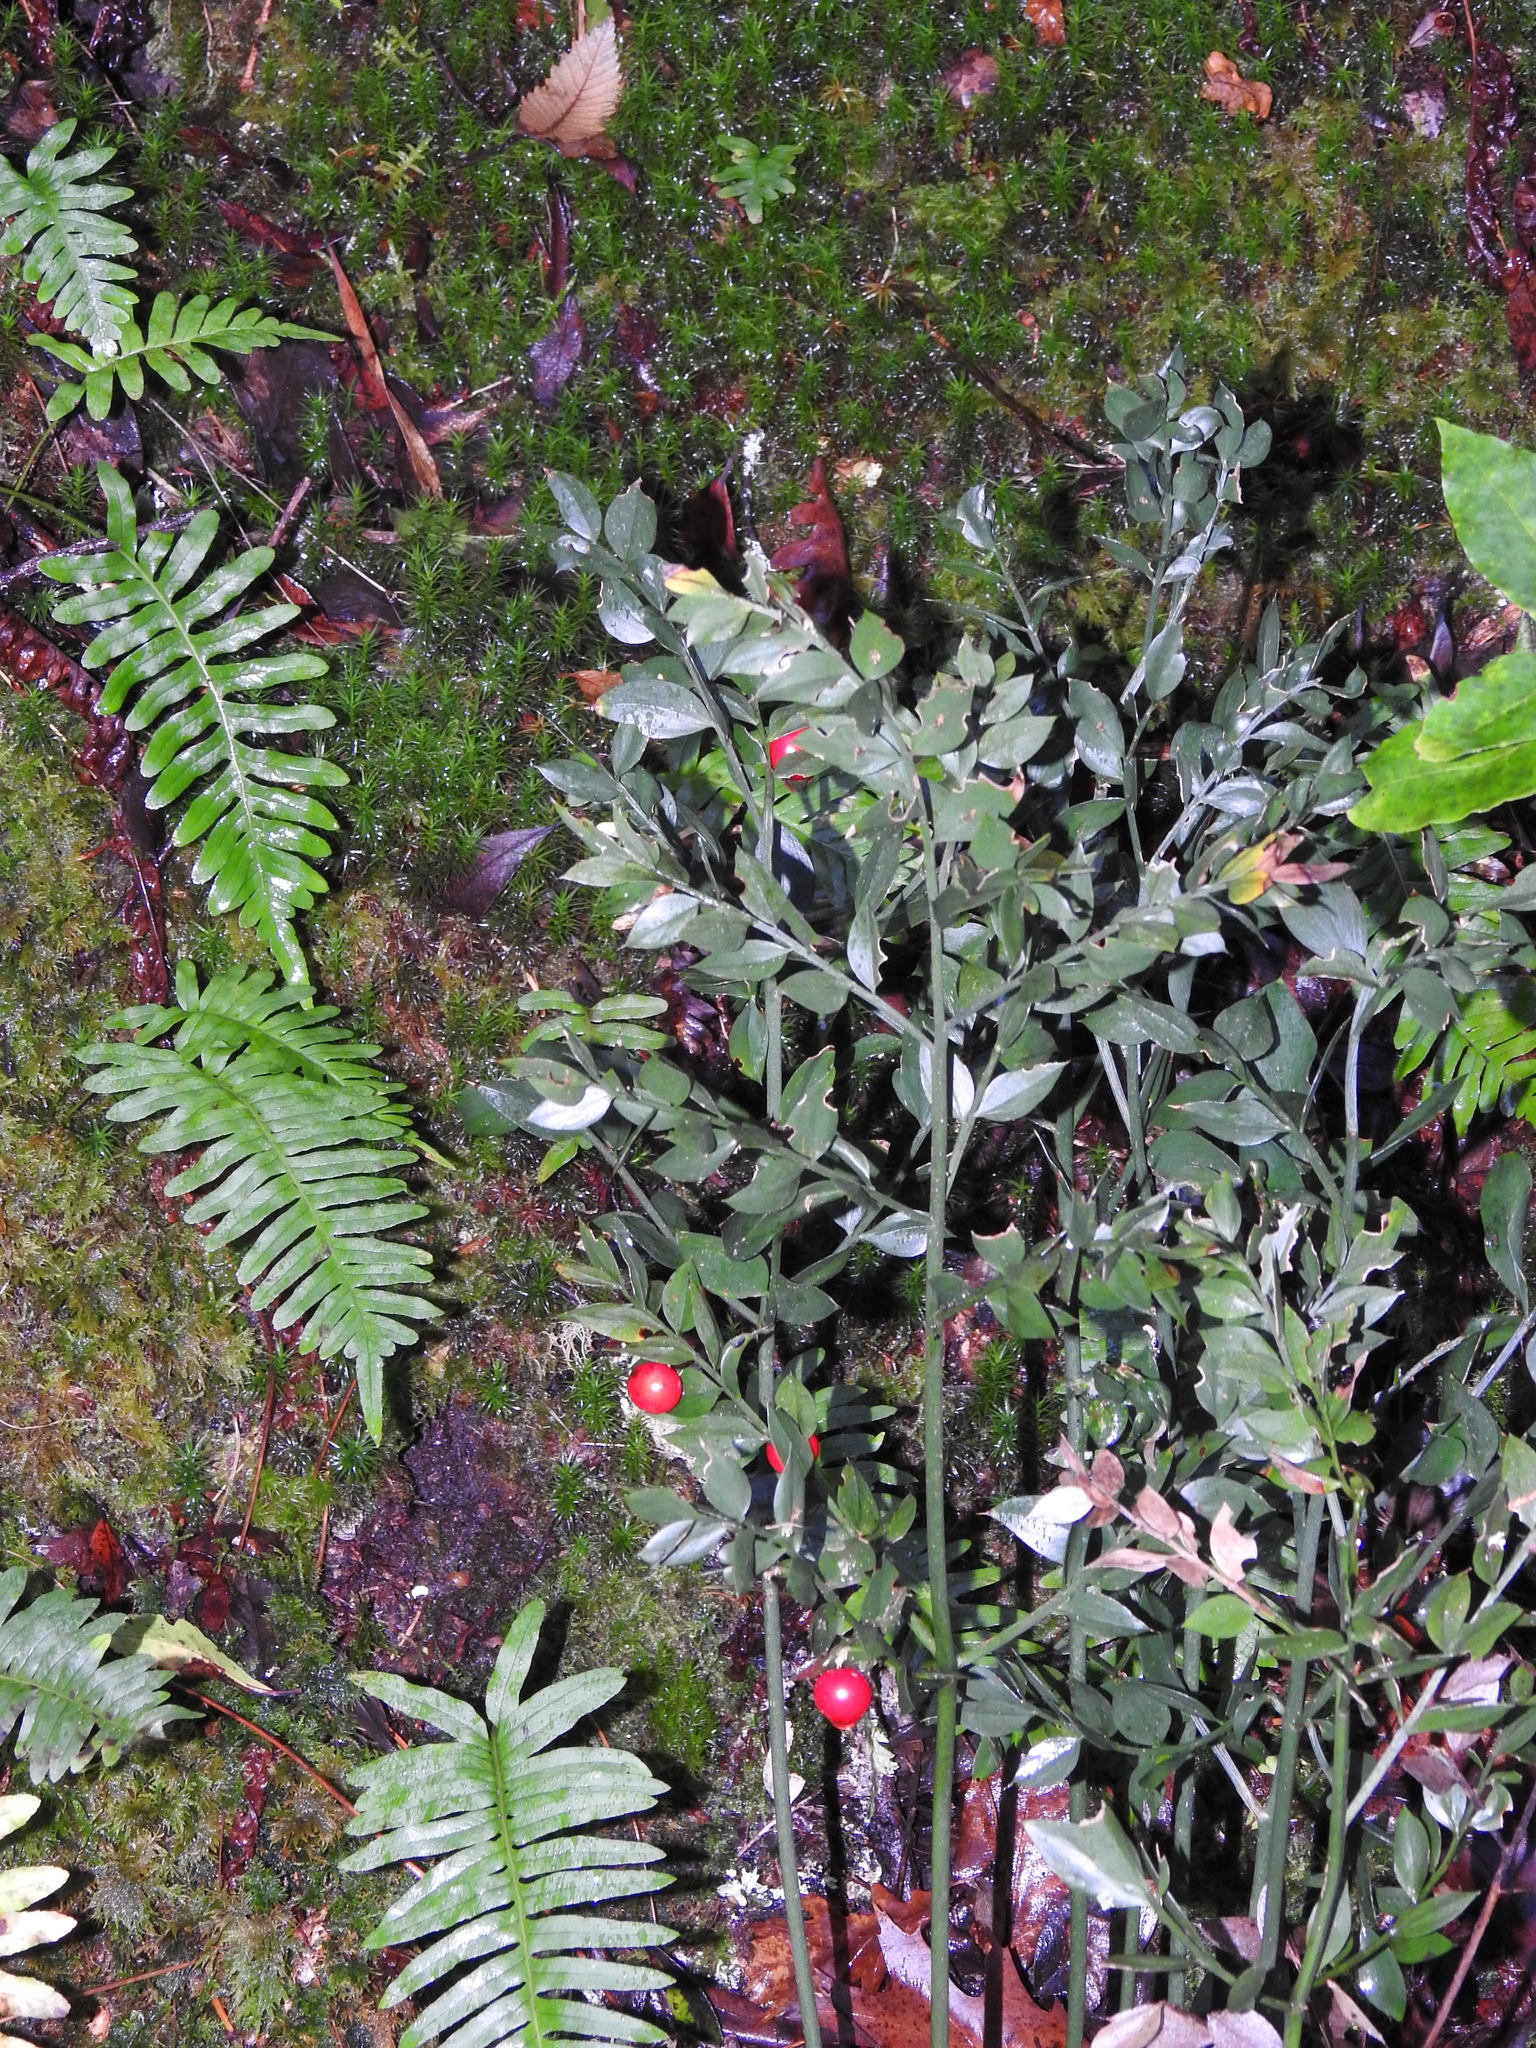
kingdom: Plantae
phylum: Tracheophyta
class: Liliopsida
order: Asparagales
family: Asparagaceae
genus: Ruscus
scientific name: Ruscus aculeatus
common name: Butcher's-broom
